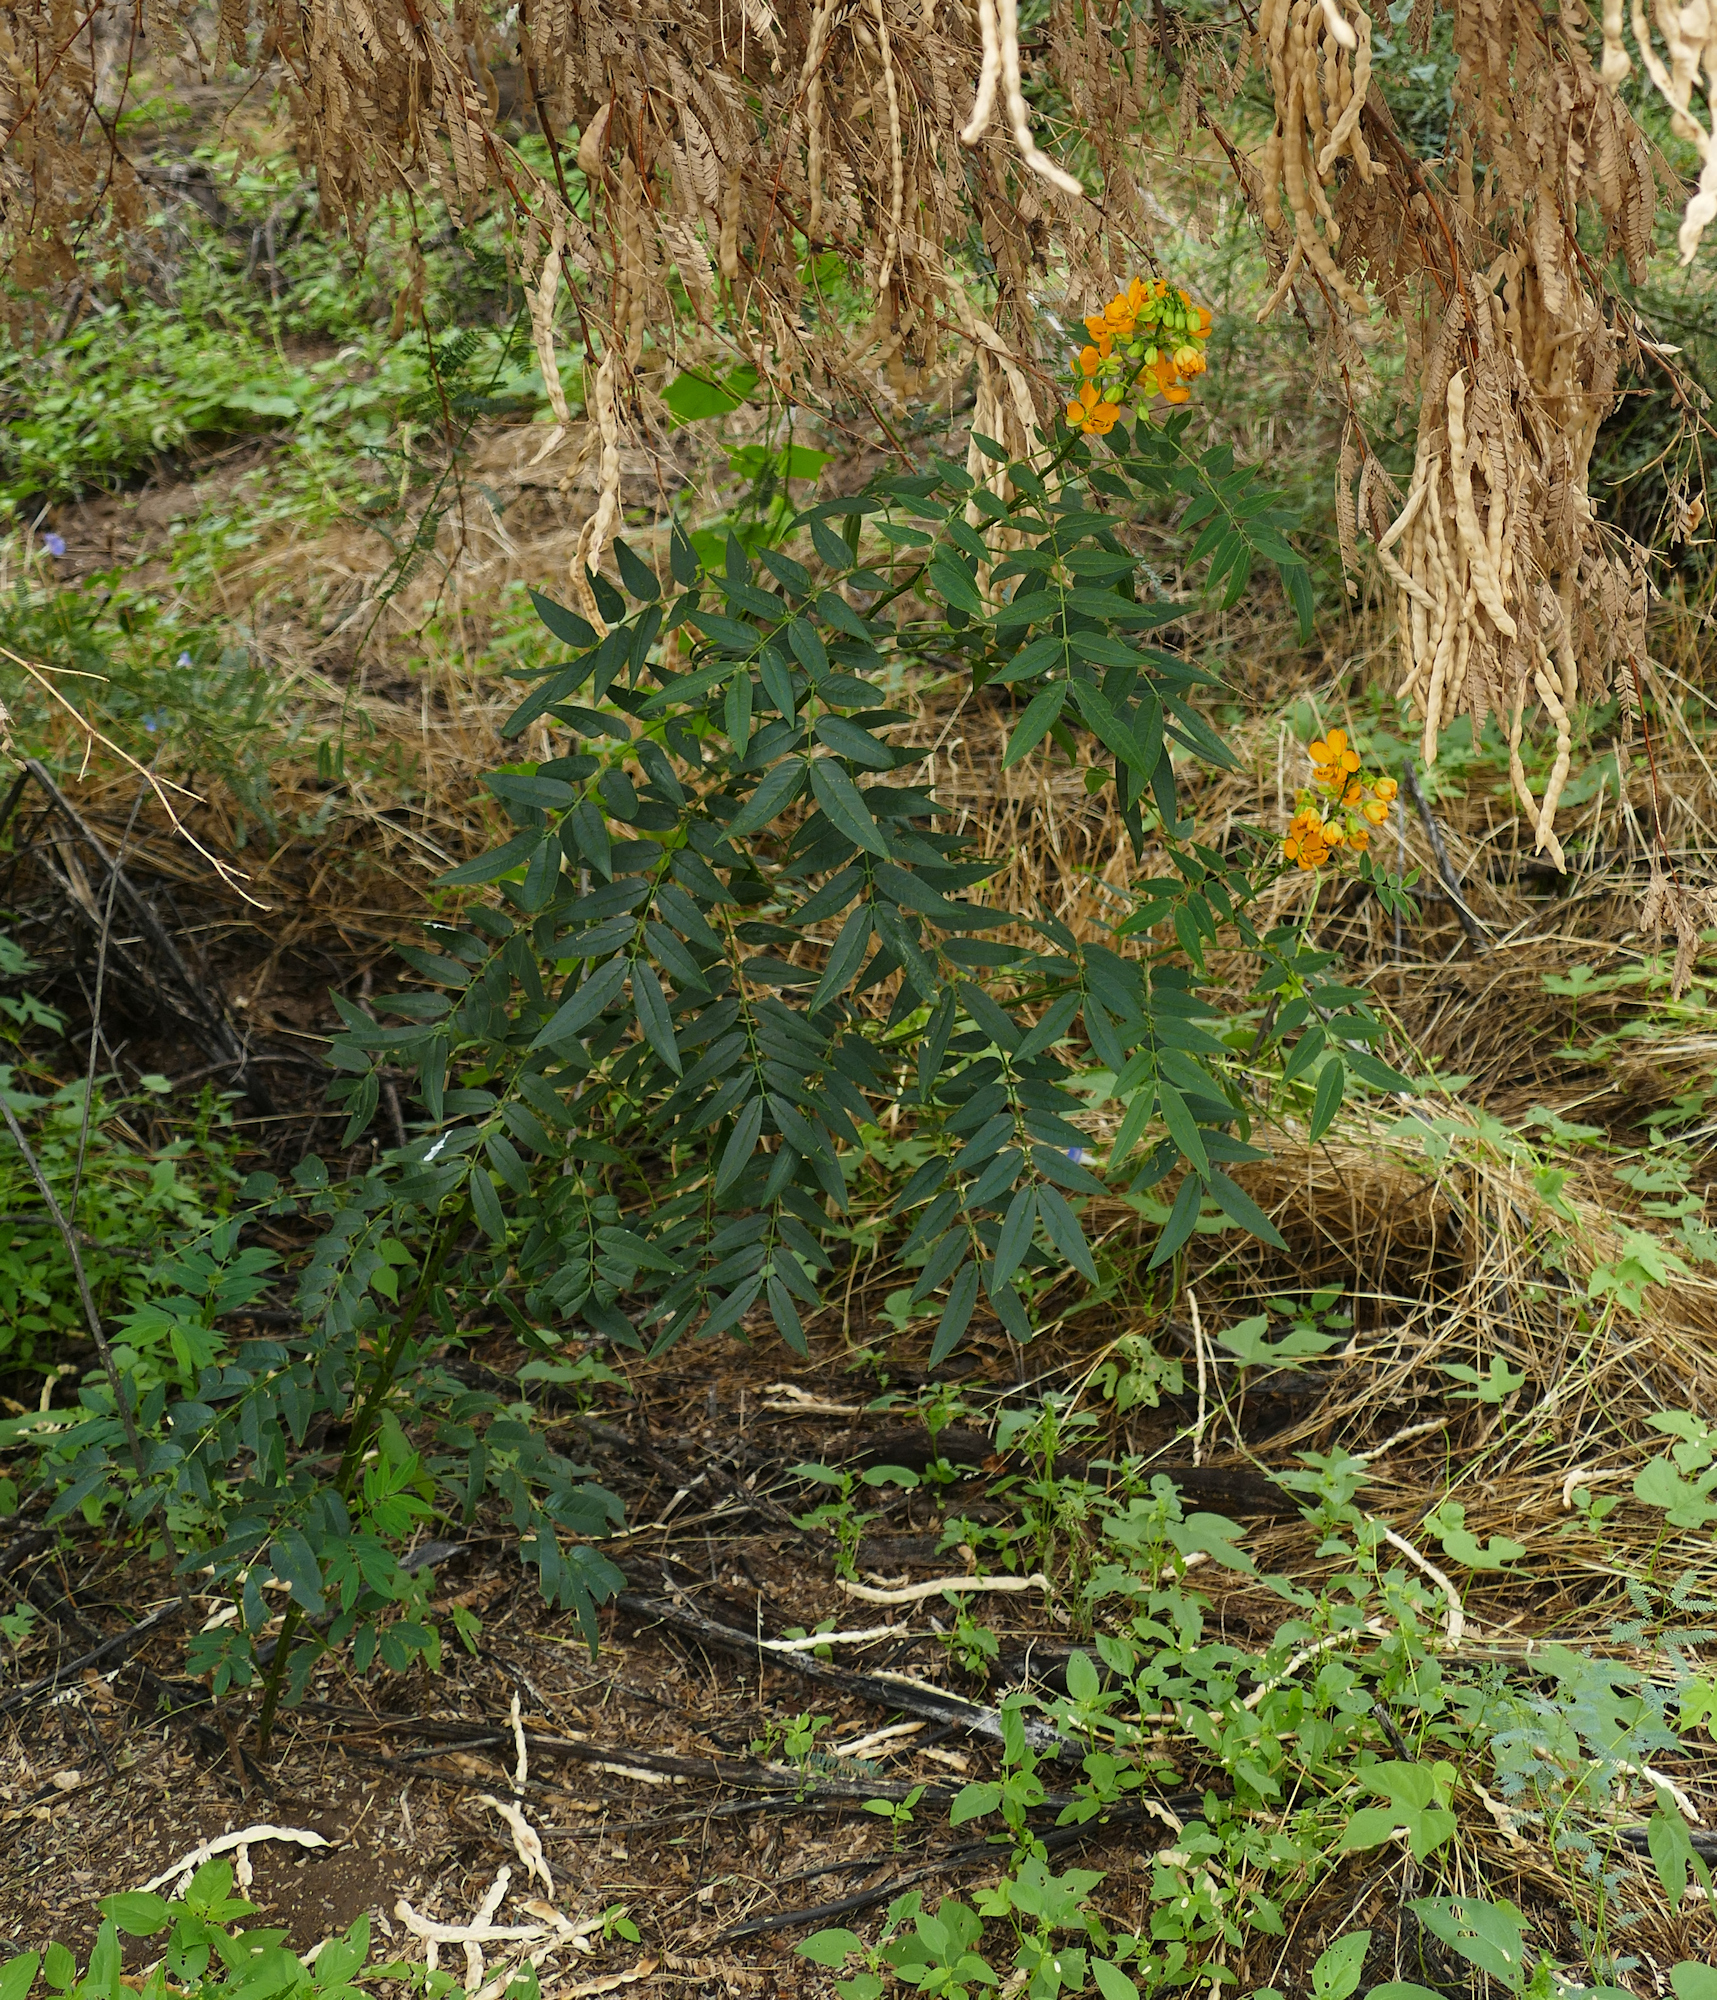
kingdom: Plantae
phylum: Tracheophyta
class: Magnoliopsida
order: Fabales
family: Fabaceae
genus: Senna
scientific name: Senna hirsuta
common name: Woolly senna
